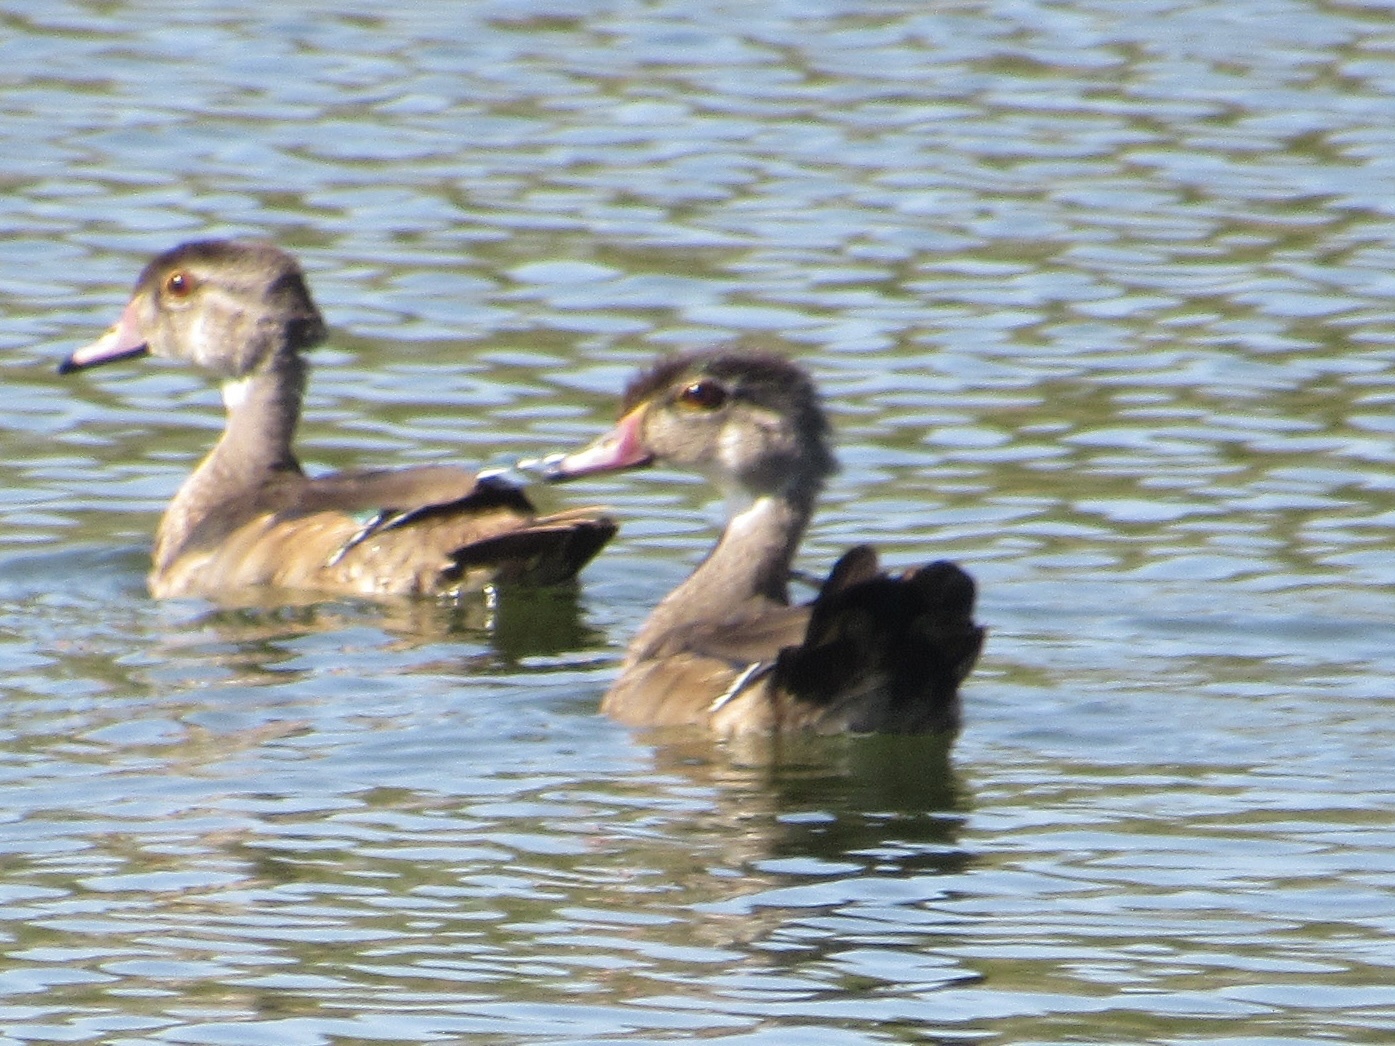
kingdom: Animalia
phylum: Chordata
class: Aves
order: Anseriformes
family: Anatidae
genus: Aix
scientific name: Aix sponsa
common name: Wood duck
